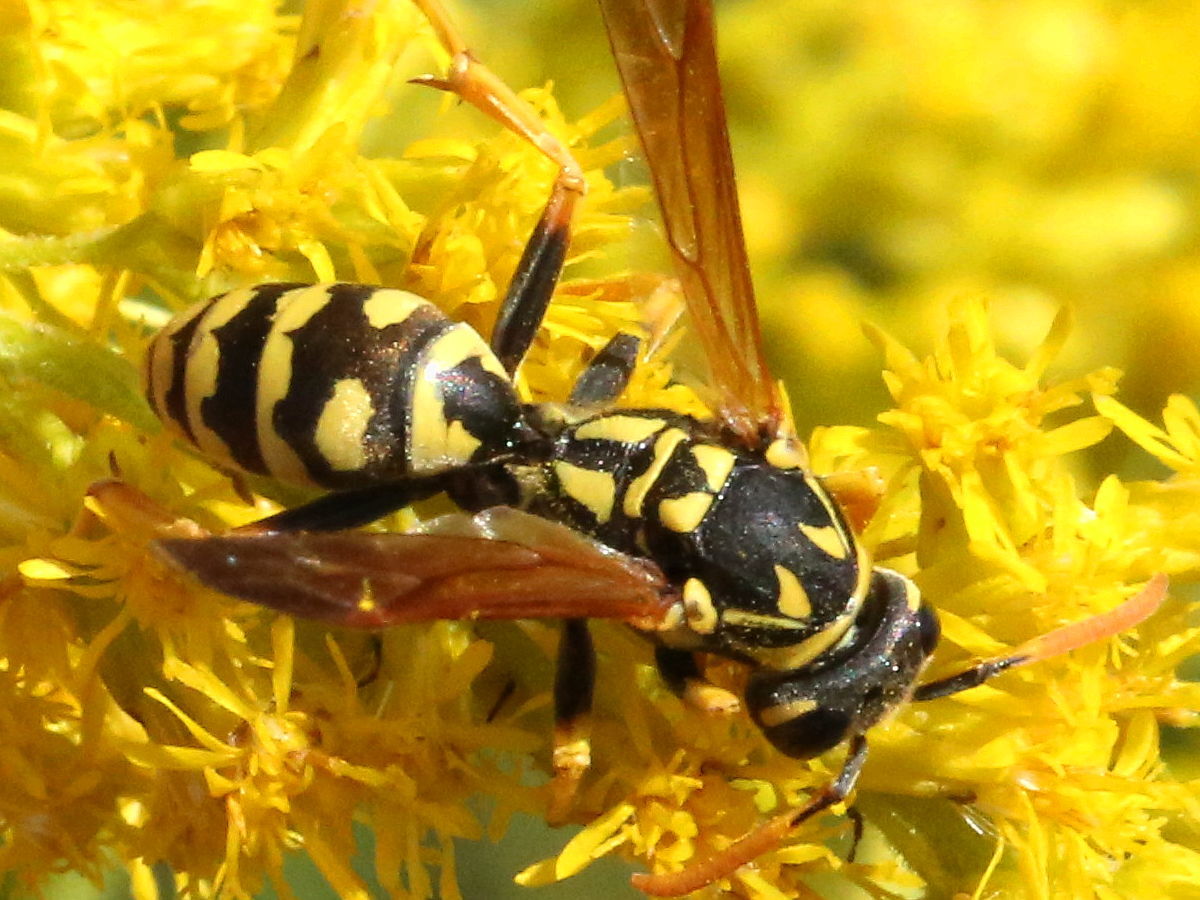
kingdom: Animalia
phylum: Arthropoda
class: Insecta
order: Hymenoptera
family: Eumenidae
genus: Polistes
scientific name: Polistes dominula
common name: Paper wasp
